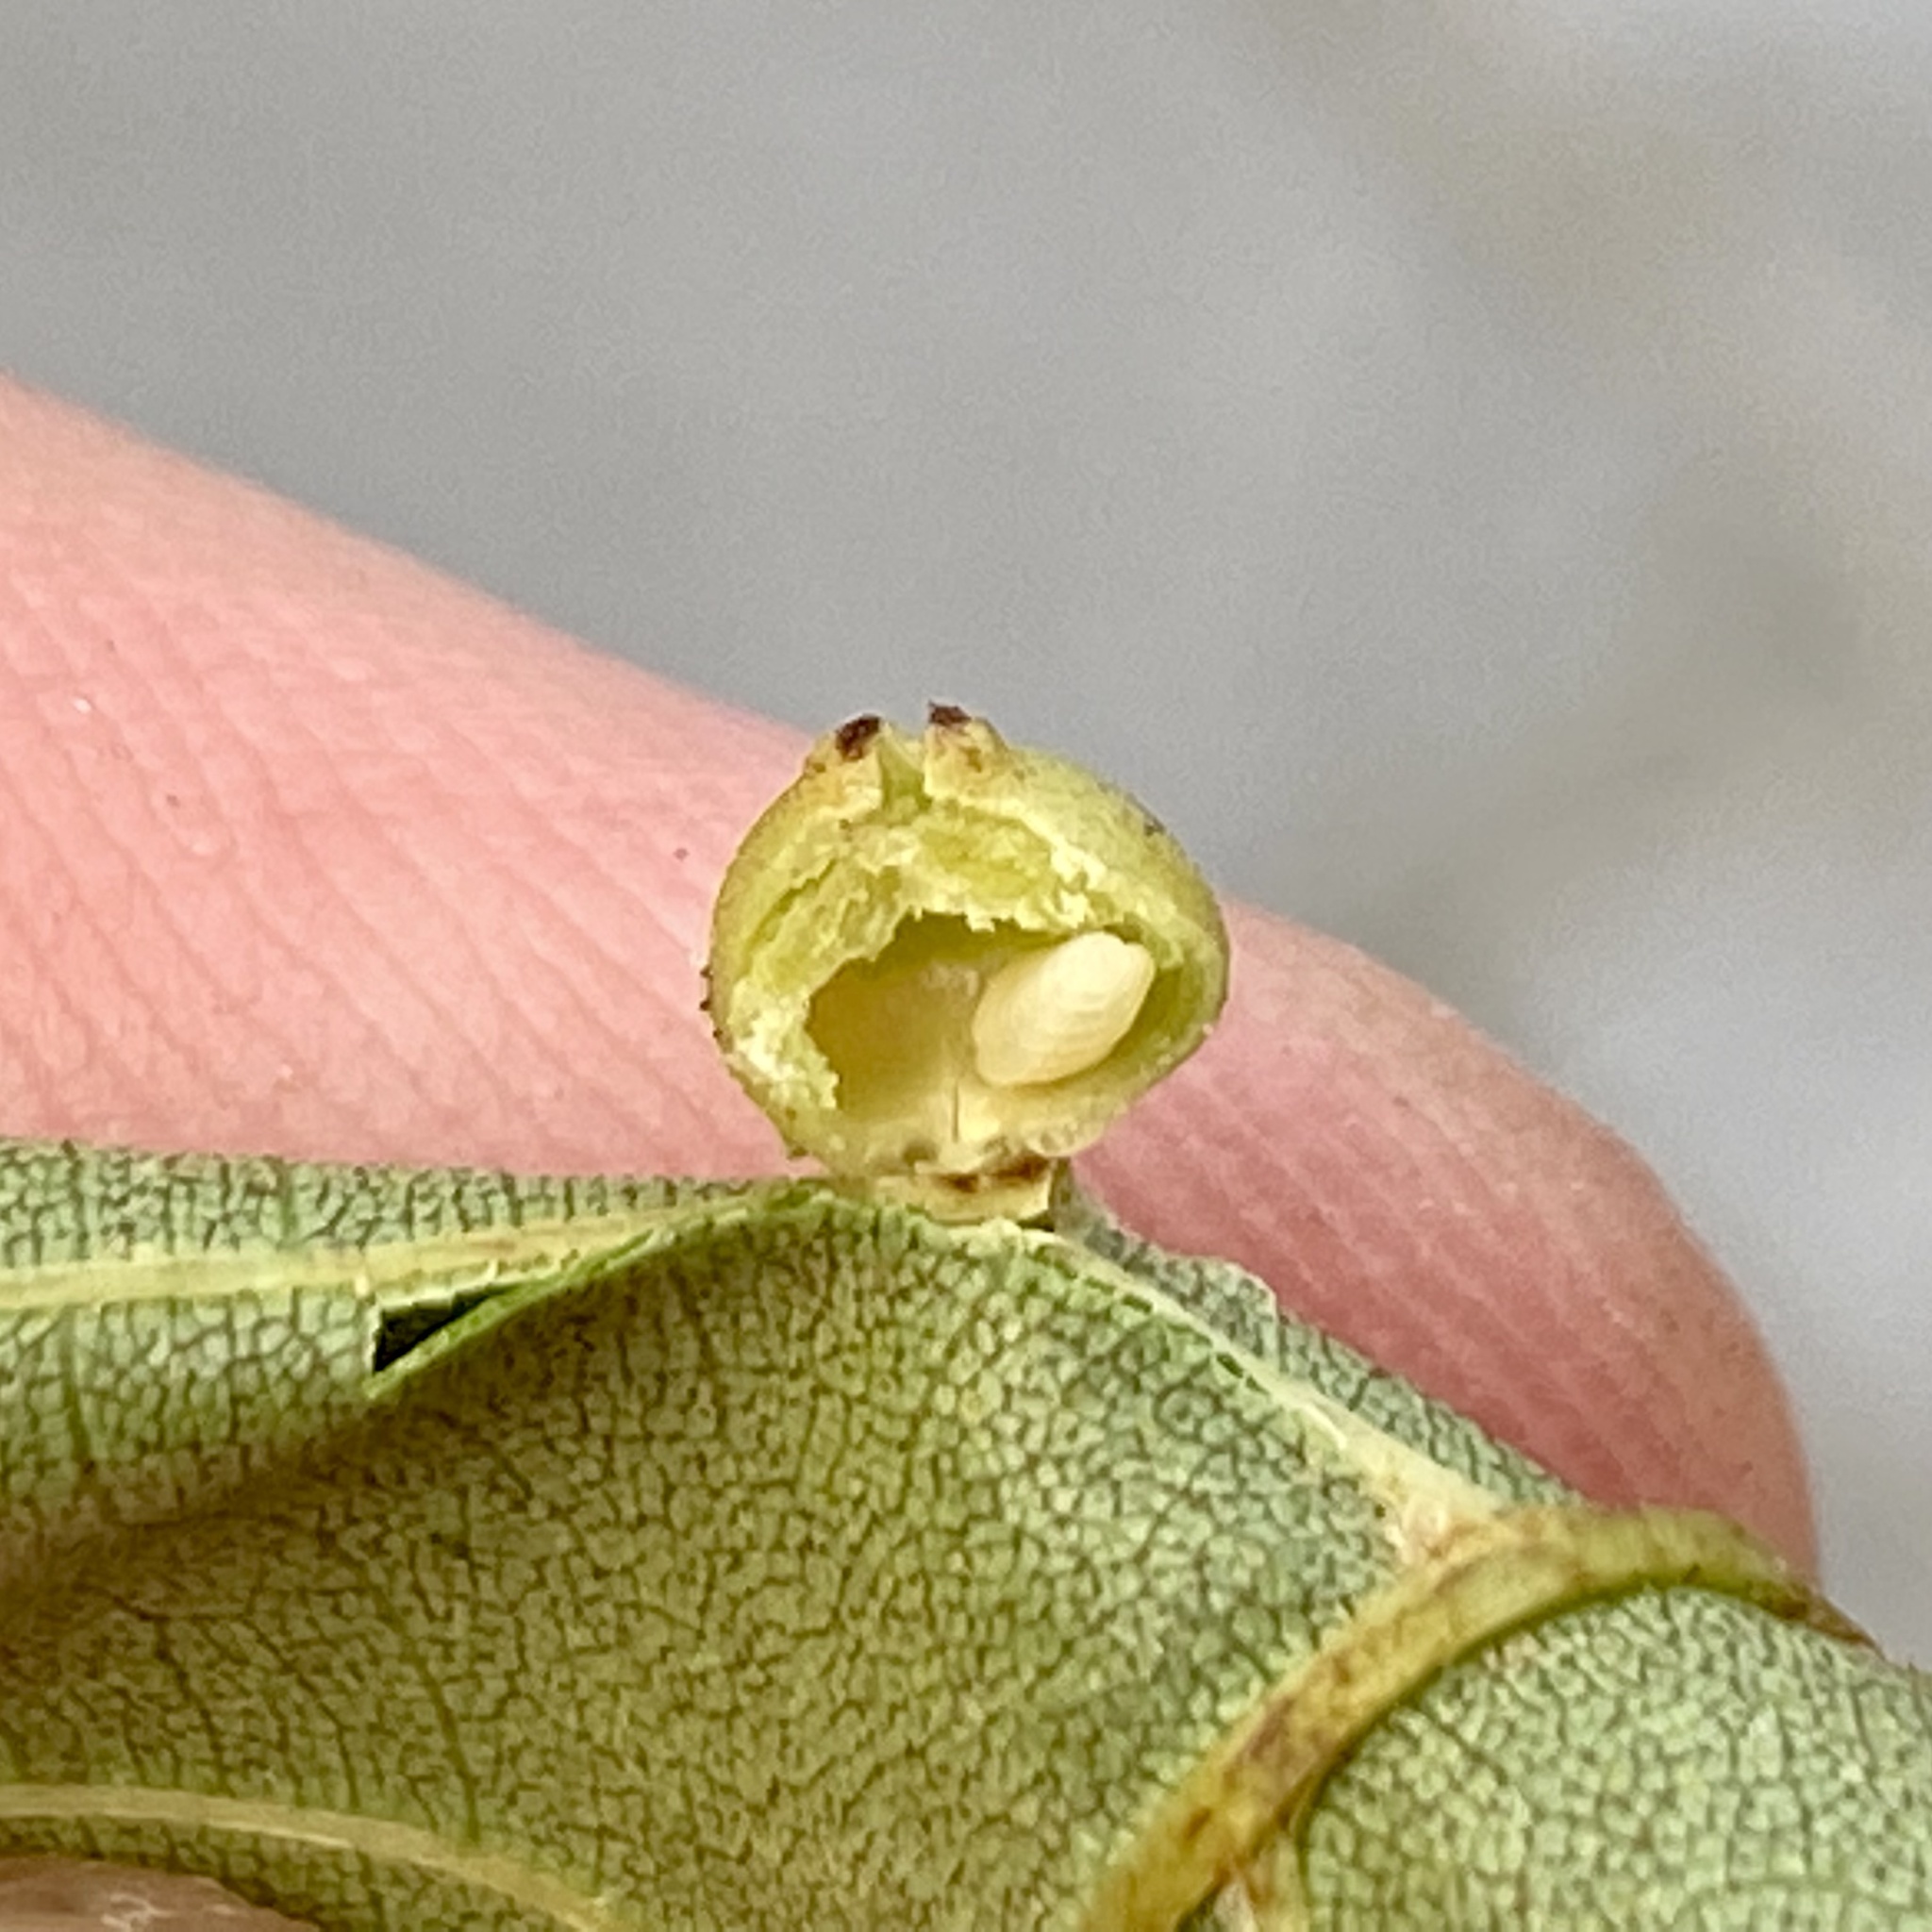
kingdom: Animalia
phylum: Arthropoda
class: Insecta
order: Diptera
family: Cecidomyiidae
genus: Caryomyia
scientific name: Caryomyia caryae
